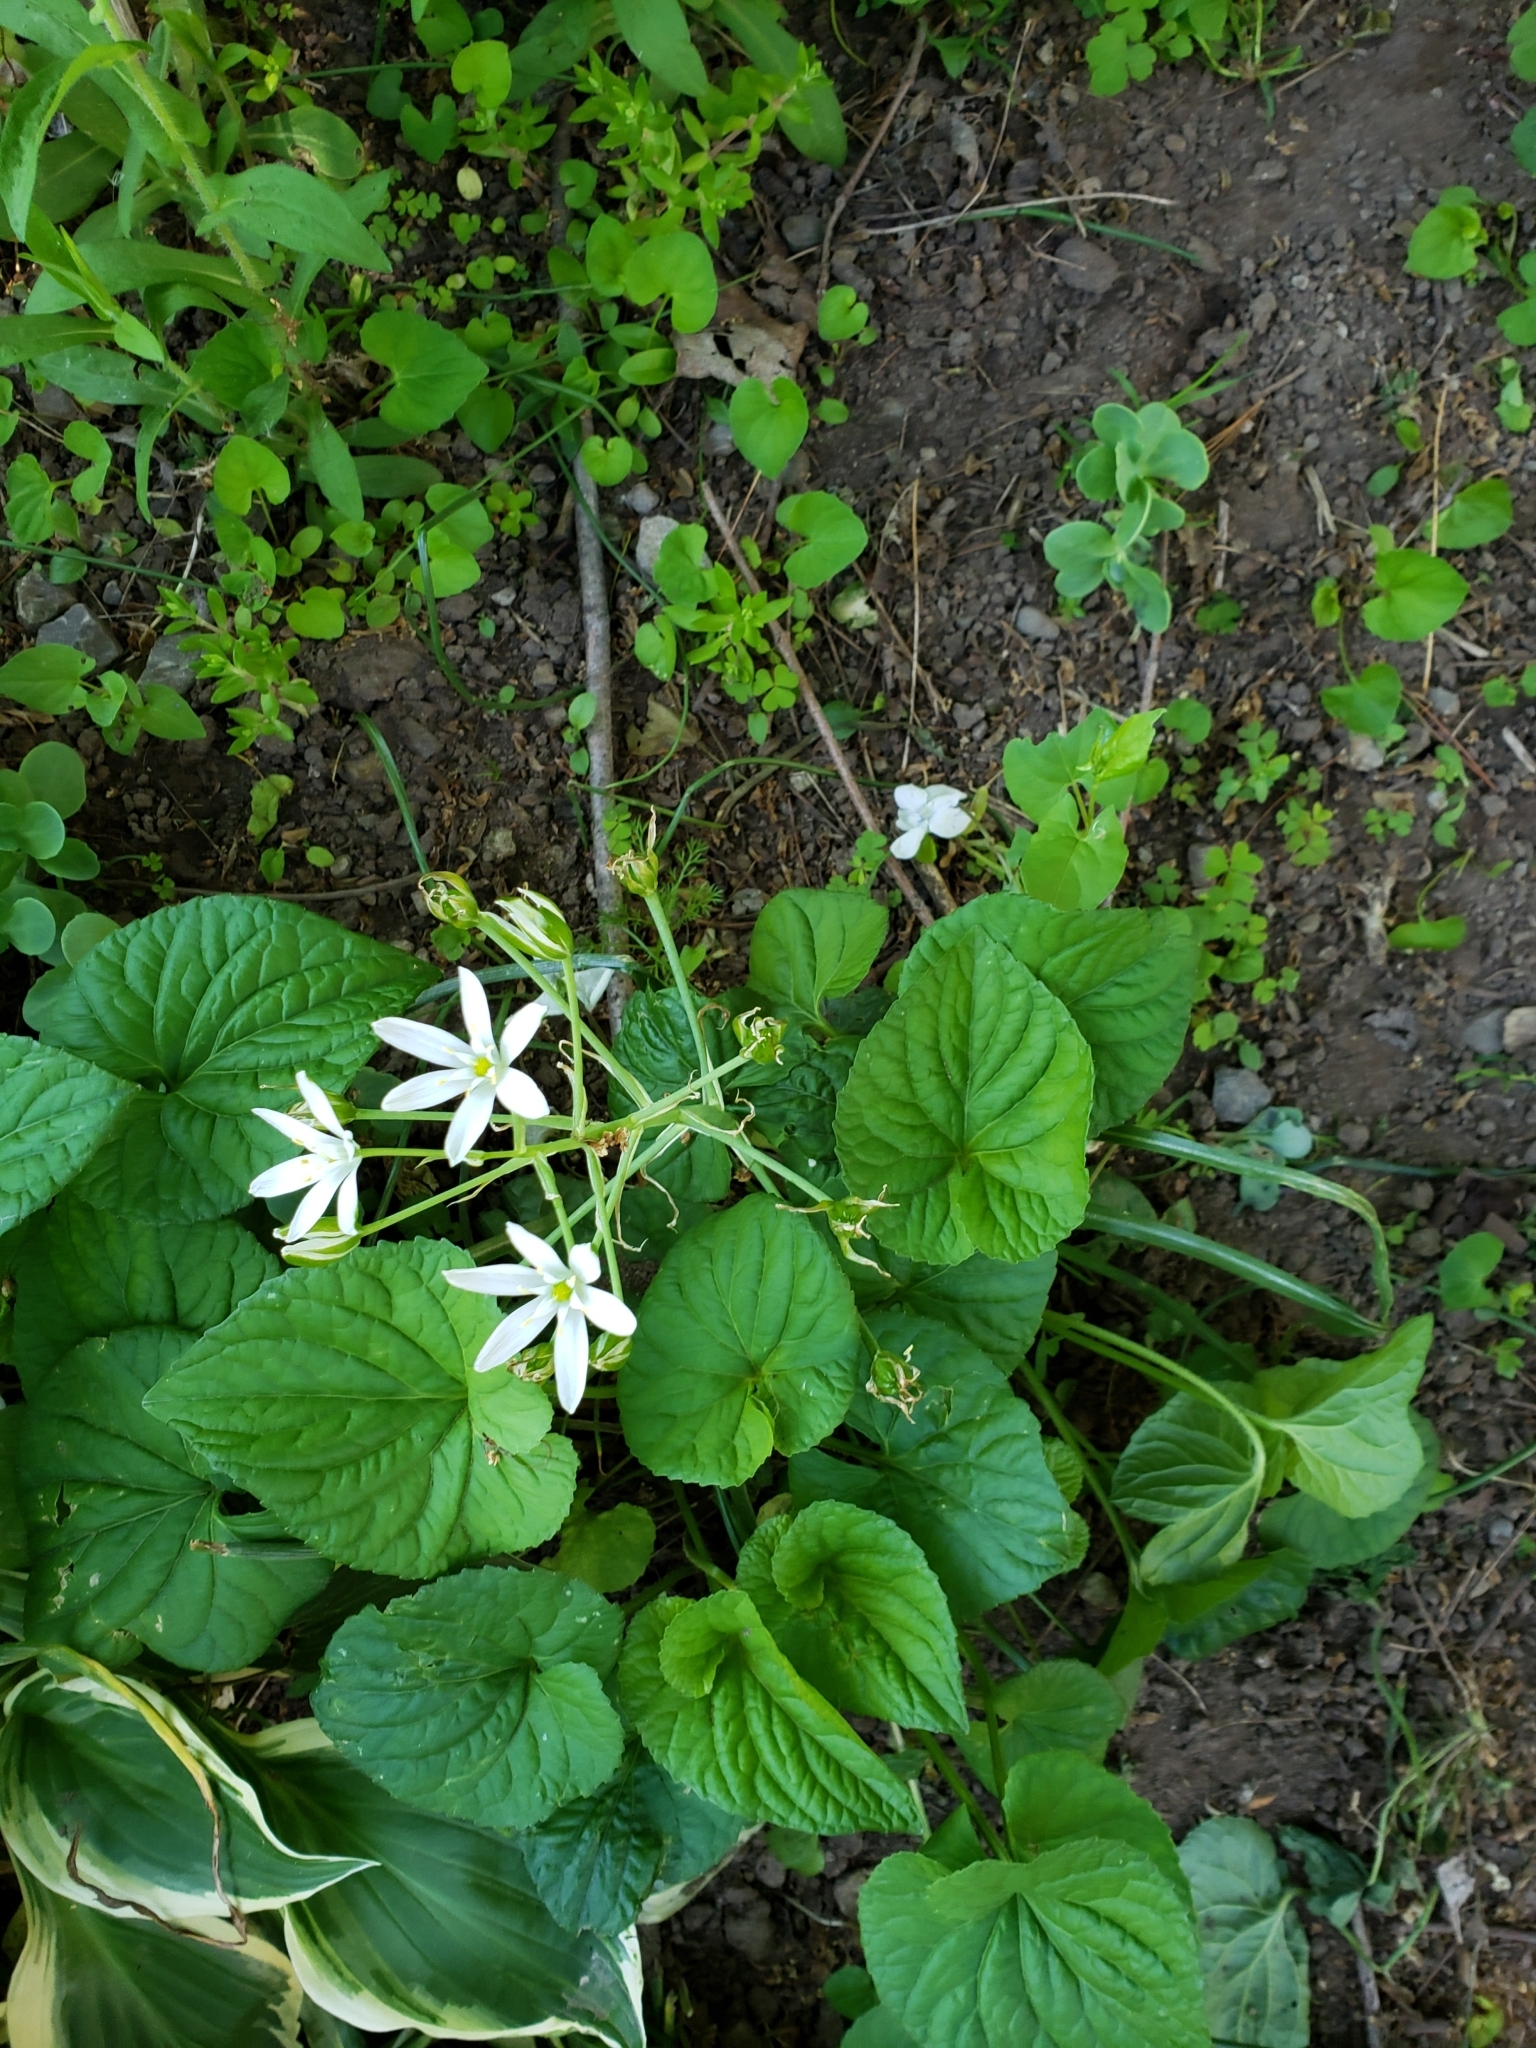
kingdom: Plantae
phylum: Tracheophyta
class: Liliopsida
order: Asparagales
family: Asparagaceae
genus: Ornithogalum
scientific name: Ornithogalum umbellatum
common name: Garden star-of-bethlehem
